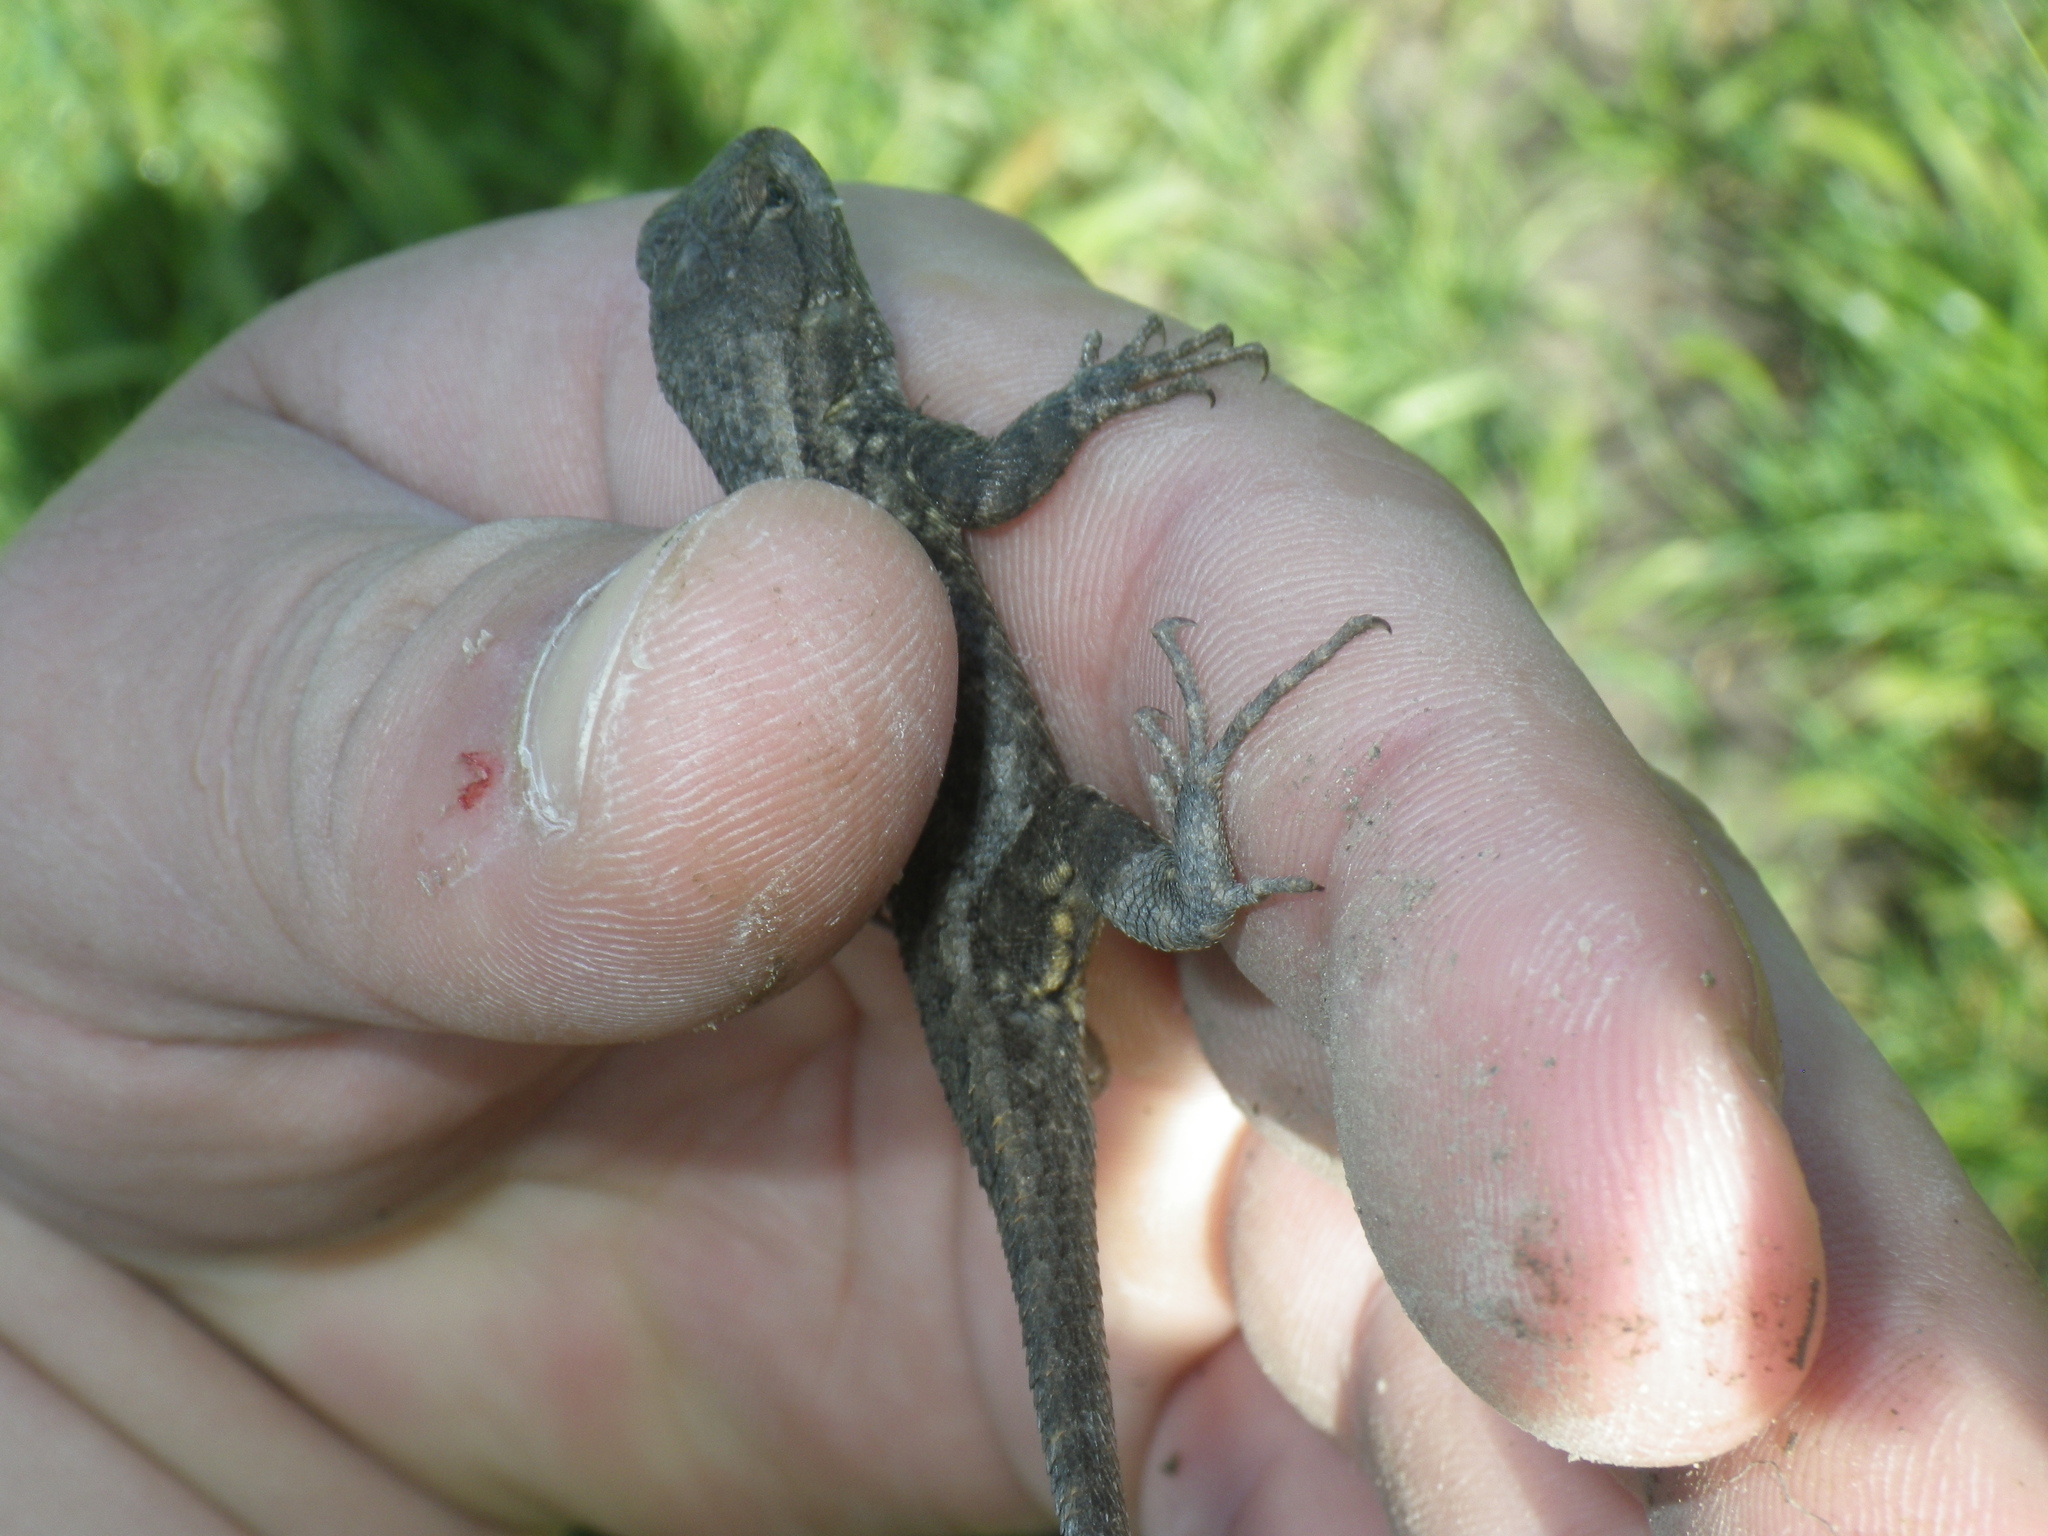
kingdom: Animalia
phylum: Chordata
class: Squamata
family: Phrynosomatidae
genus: Sceloporus
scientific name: Sceloporus occidentalis
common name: Western fence lizard
